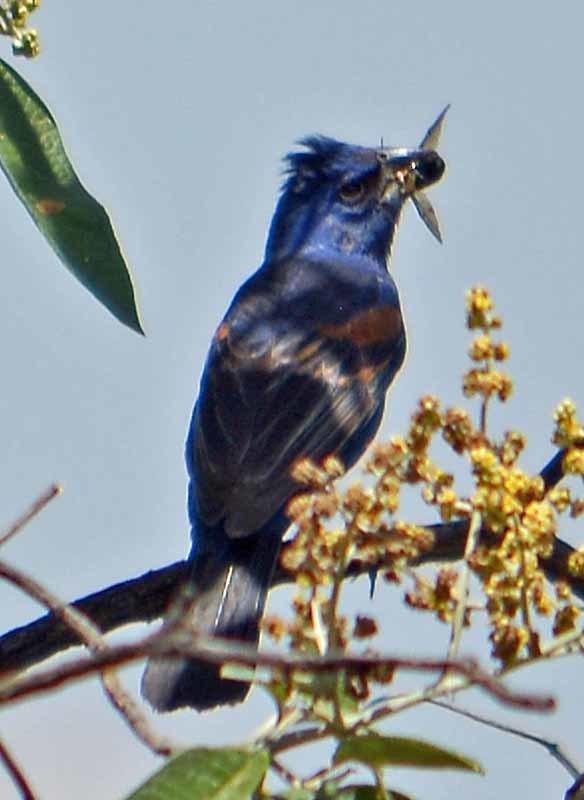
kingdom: Animalia
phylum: Chordata
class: Aves
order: Passeriformes
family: Cardinalidae
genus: Passerina
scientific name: Passerina caerulea
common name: Blue grosbeak
